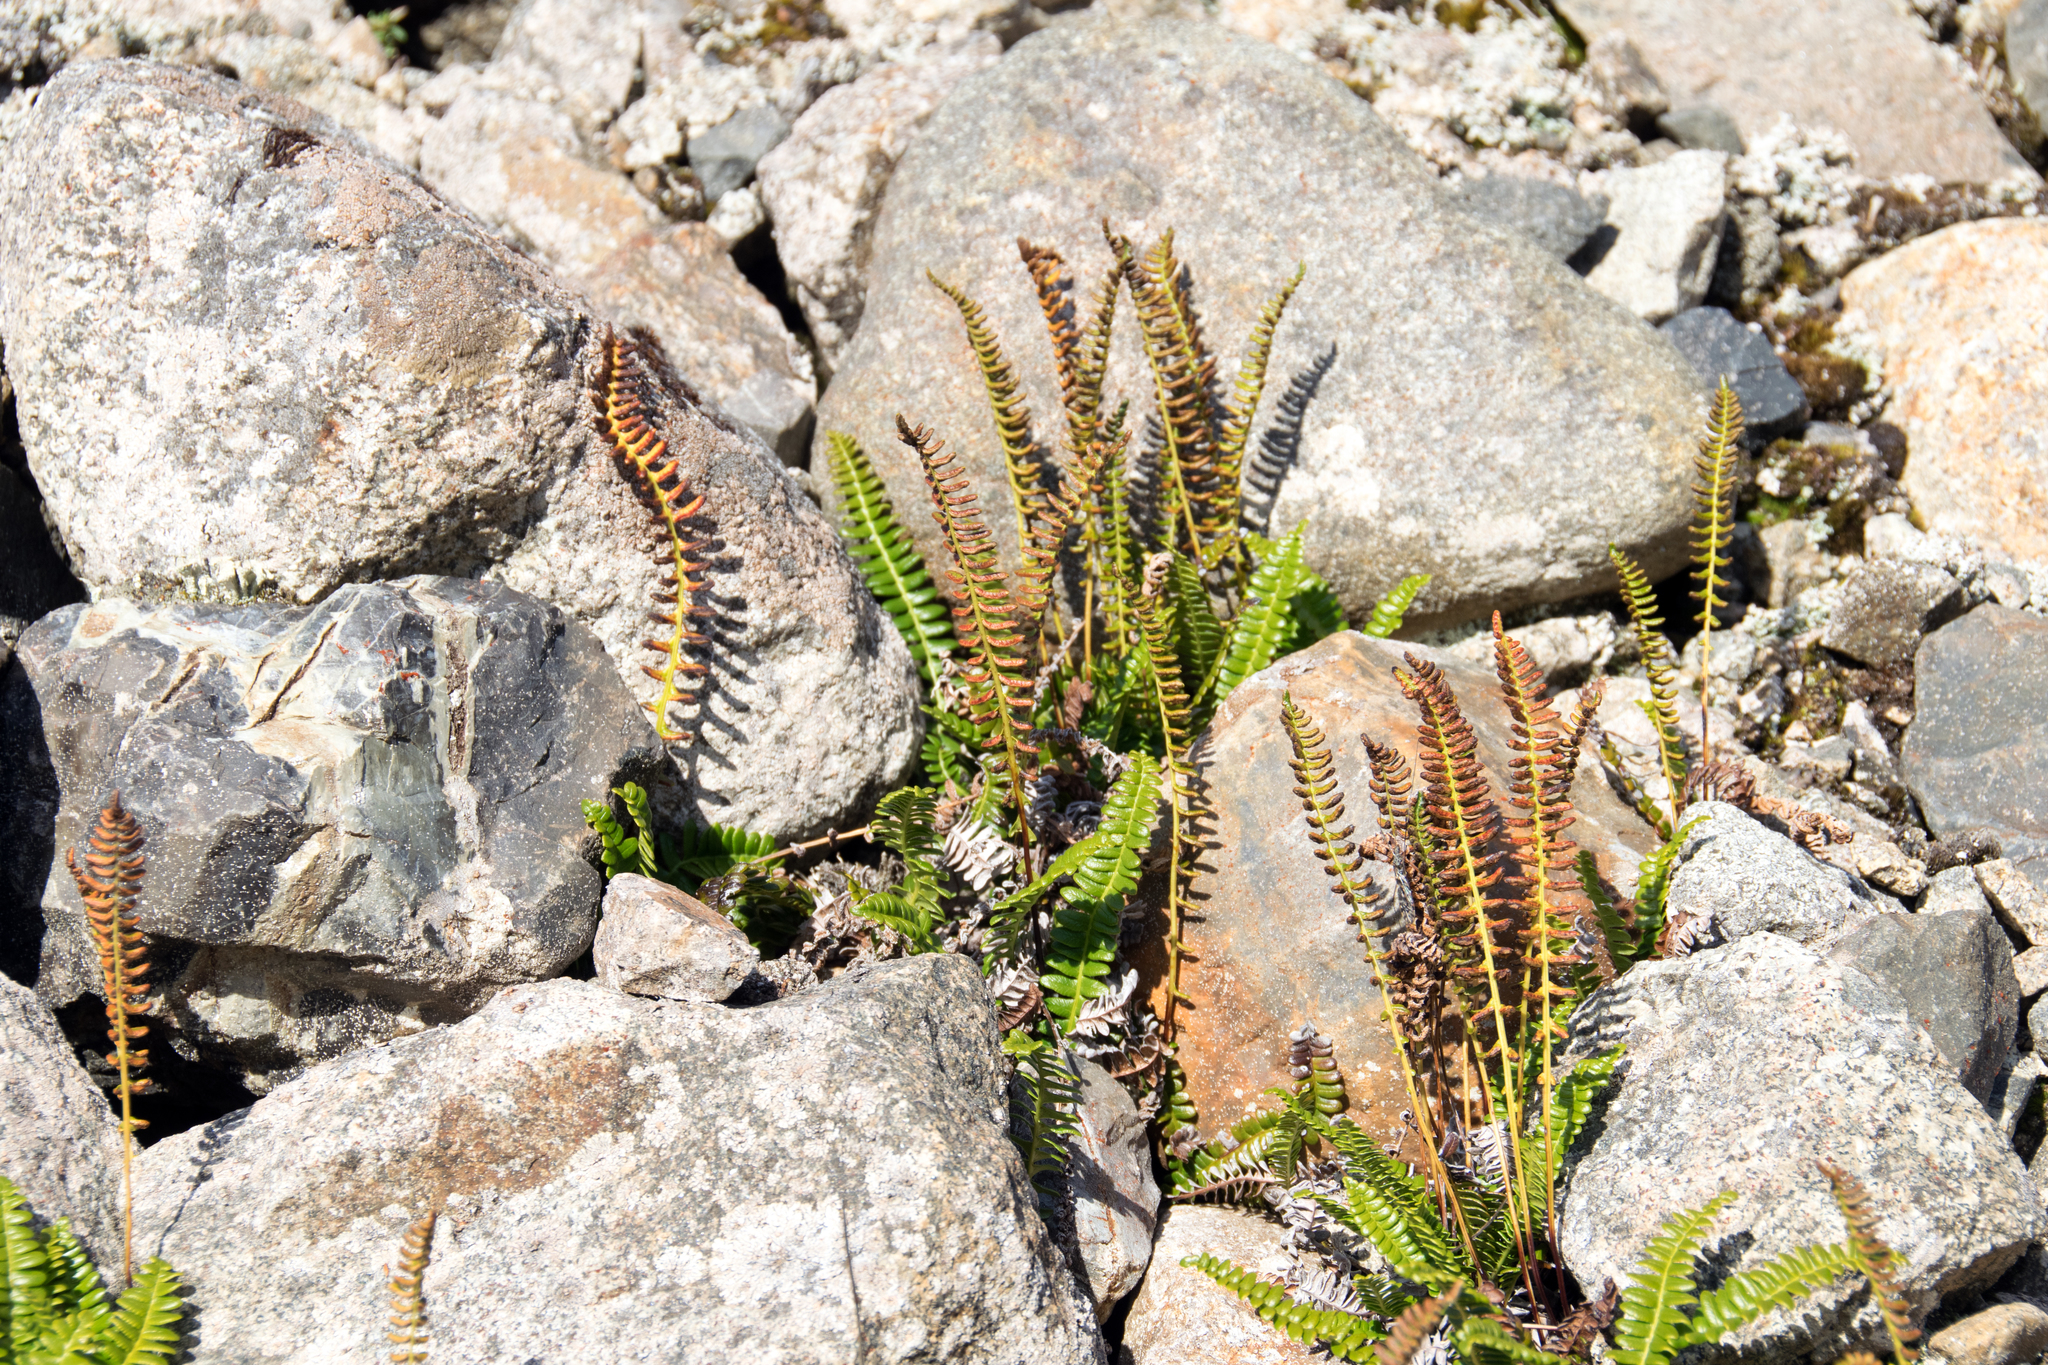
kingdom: Plantae
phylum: Tracheophyta
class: Polypodiopsida
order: Polypodiales
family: Blechnaceae
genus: Austroblechnum
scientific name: Austroblechnum penna-marina
